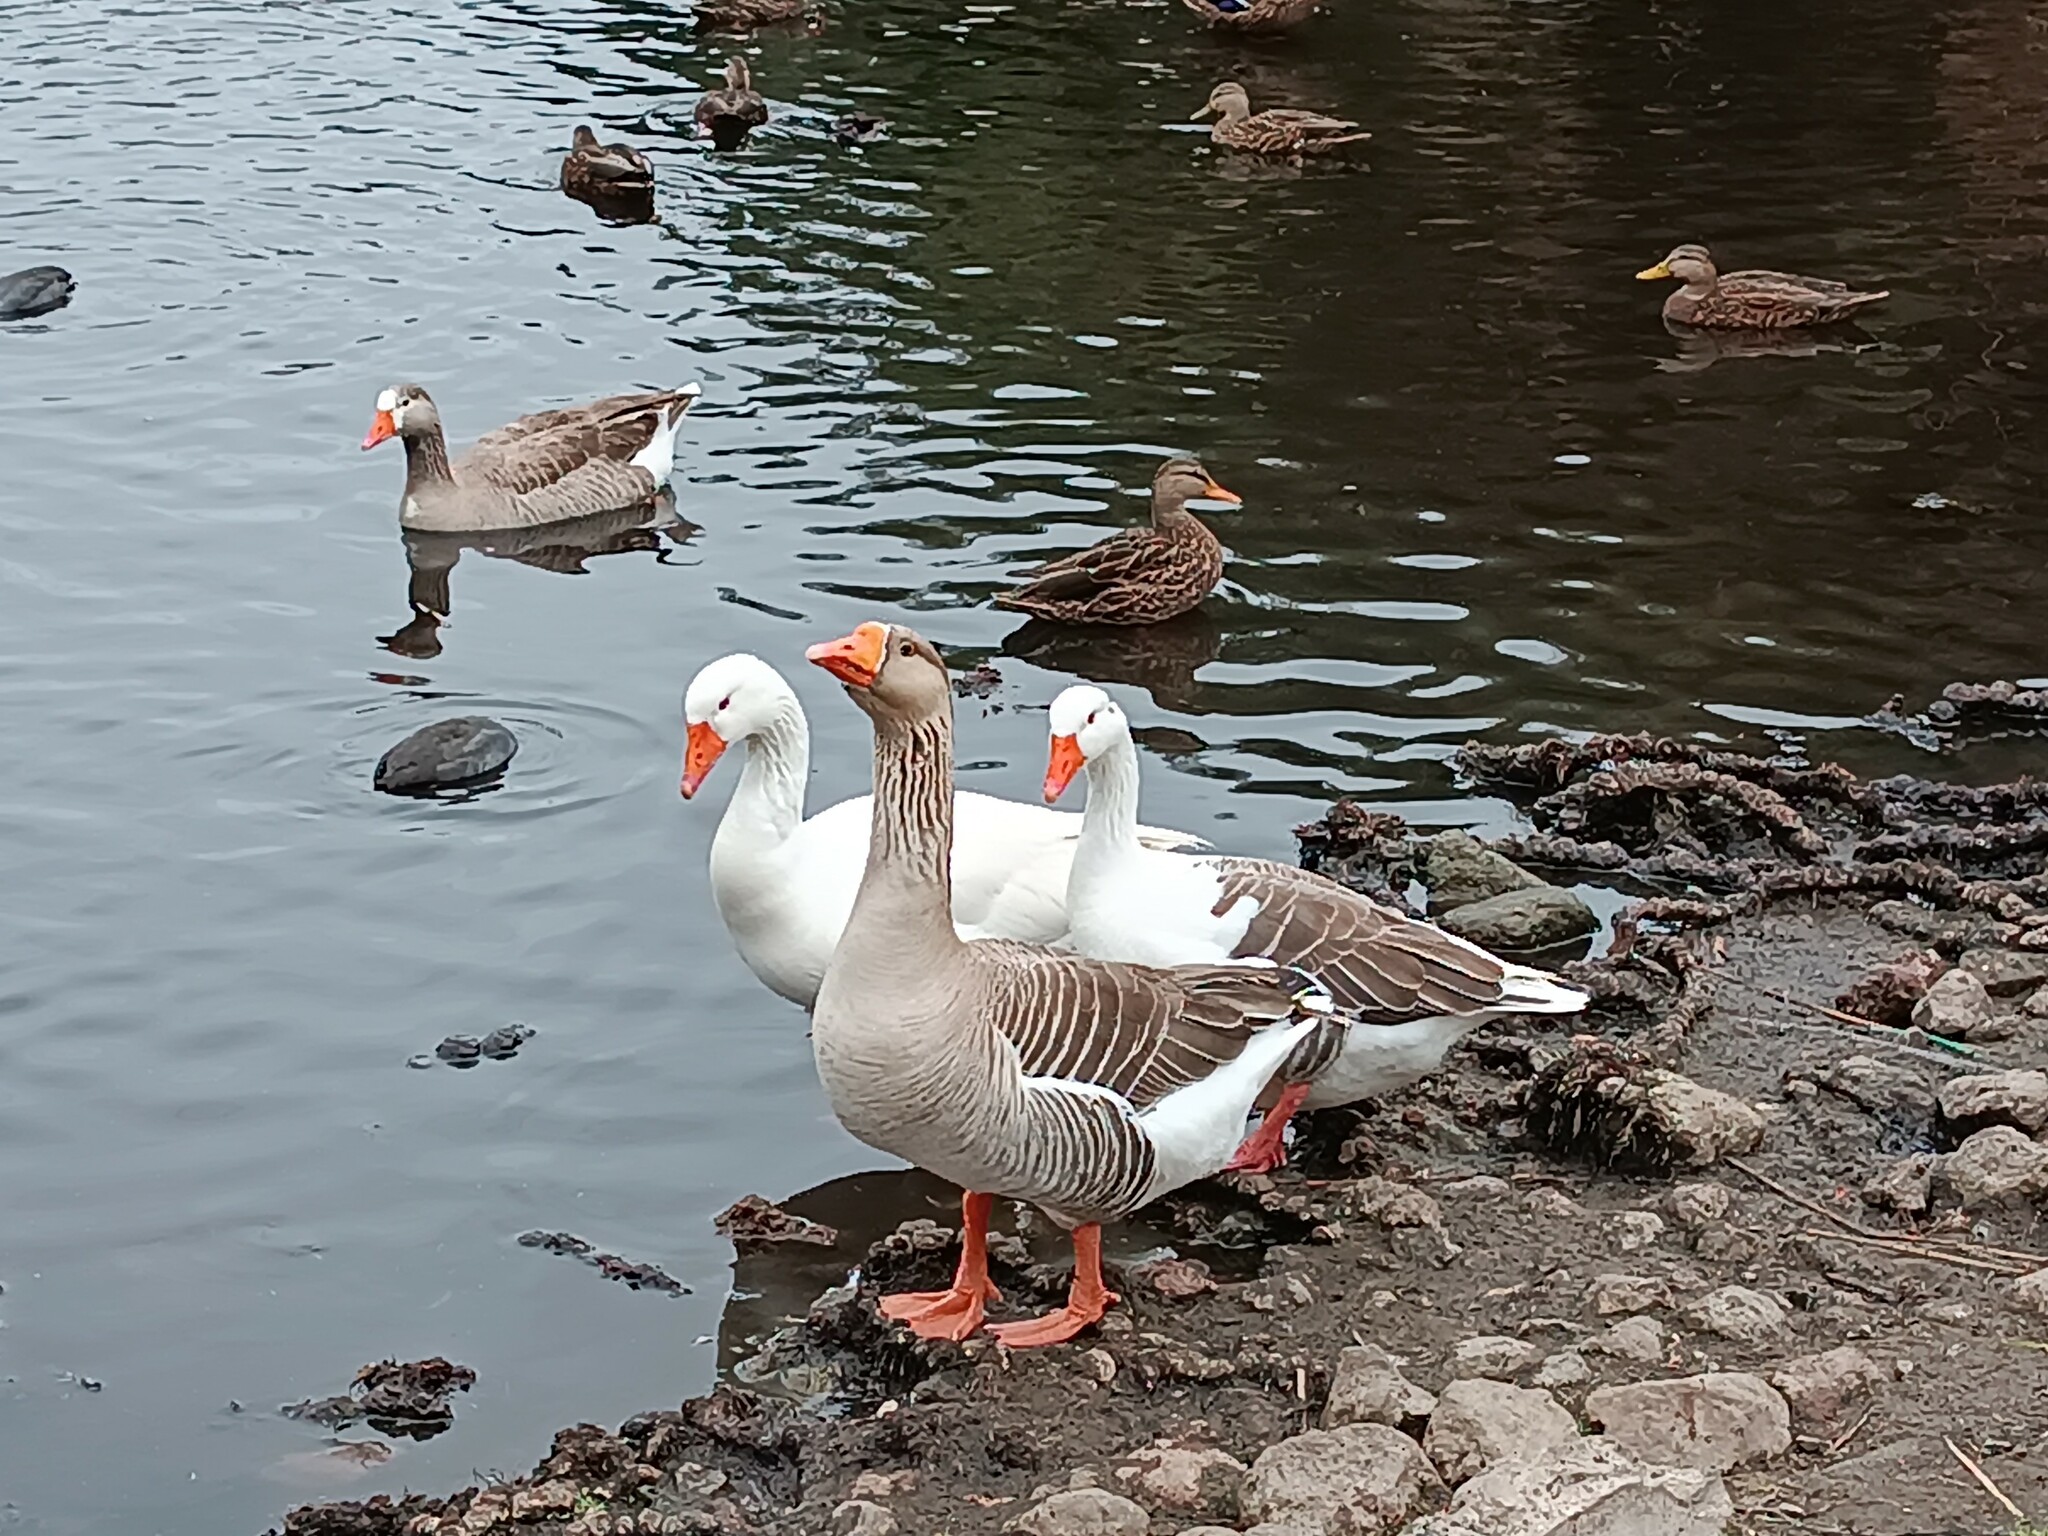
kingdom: Animalia
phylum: Chordata
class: Aves
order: Anseriformes
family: Anatidae
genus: Anser
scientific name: Anser anser
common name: Greylag goose
